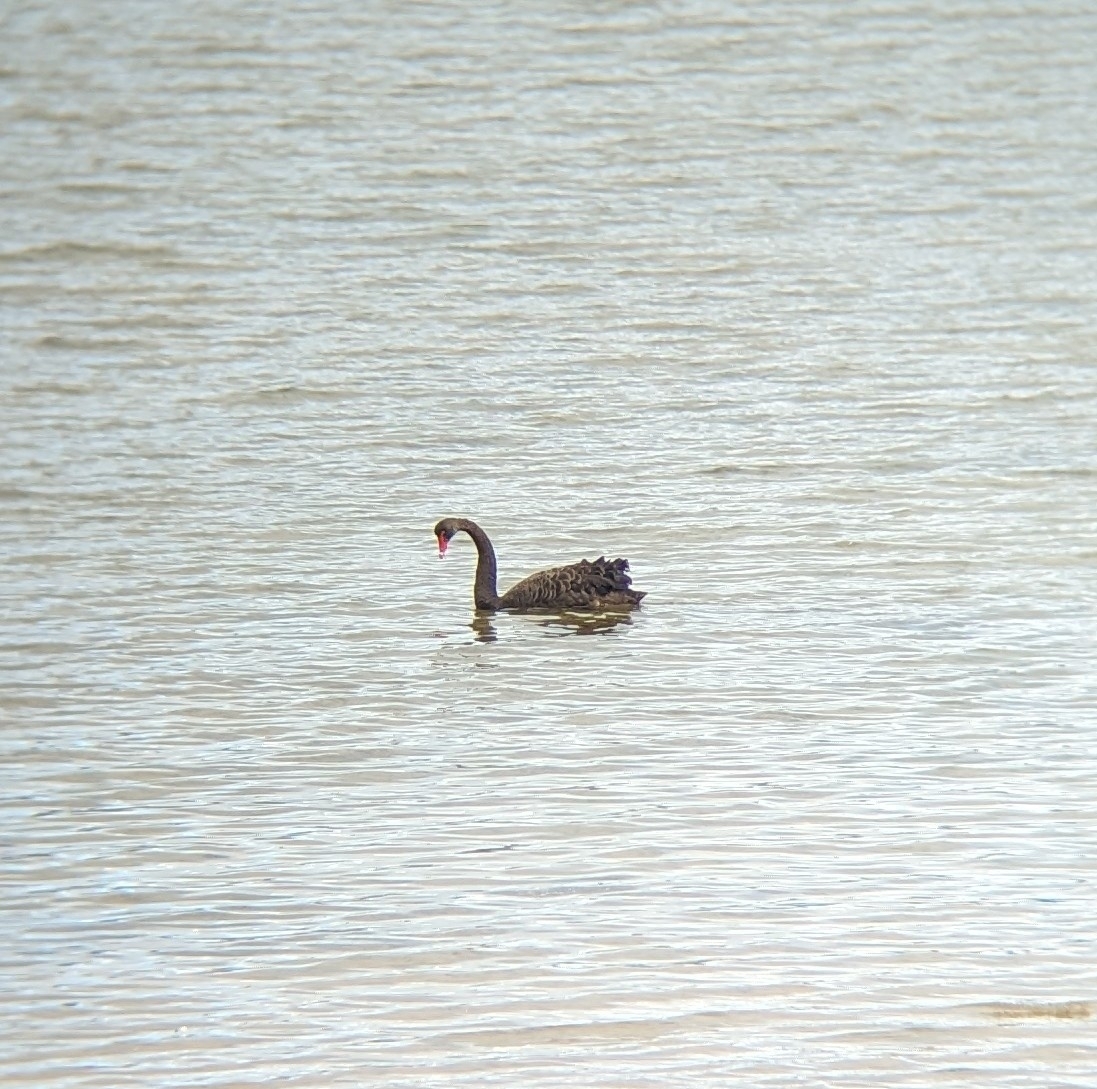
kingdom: Animalia
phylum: Chordata
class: Aves
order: Anseriformes
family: Anatidae
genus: Cygnus
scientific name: Cygnus atratus
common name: Black swan
